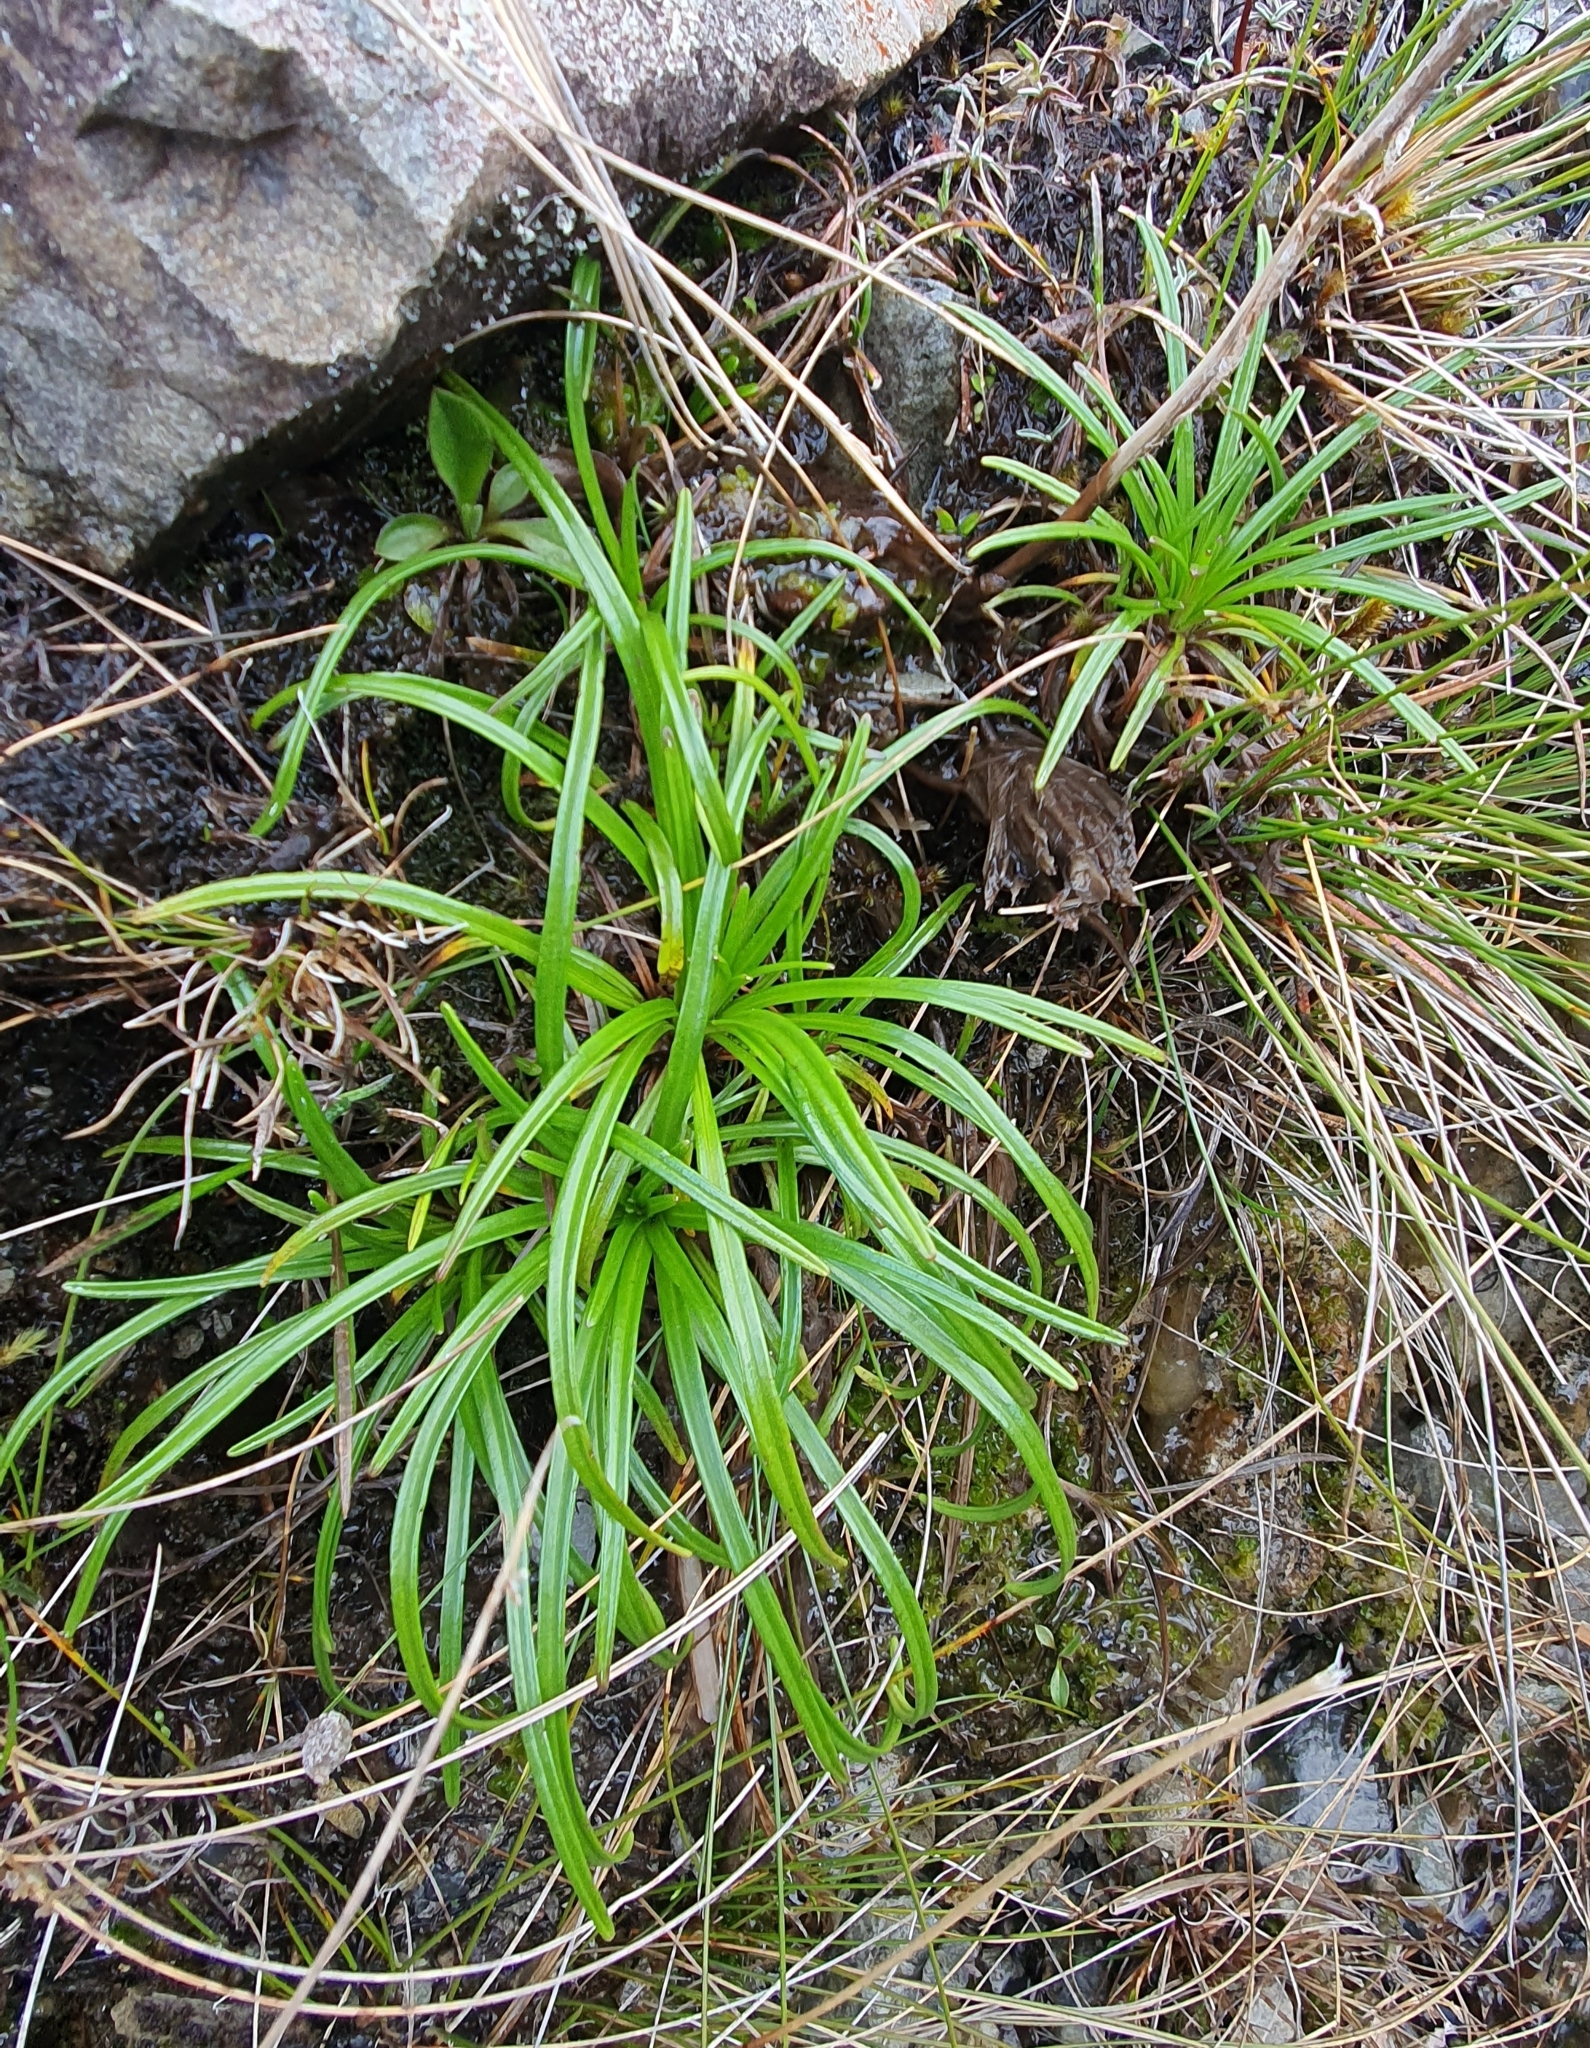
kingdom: Plantae
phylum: Tracheophyta
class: Magnoliopsida
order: Asterales
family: Asteraceae
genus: Dolichoglottis
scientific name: Dolichoglottis lyallii
